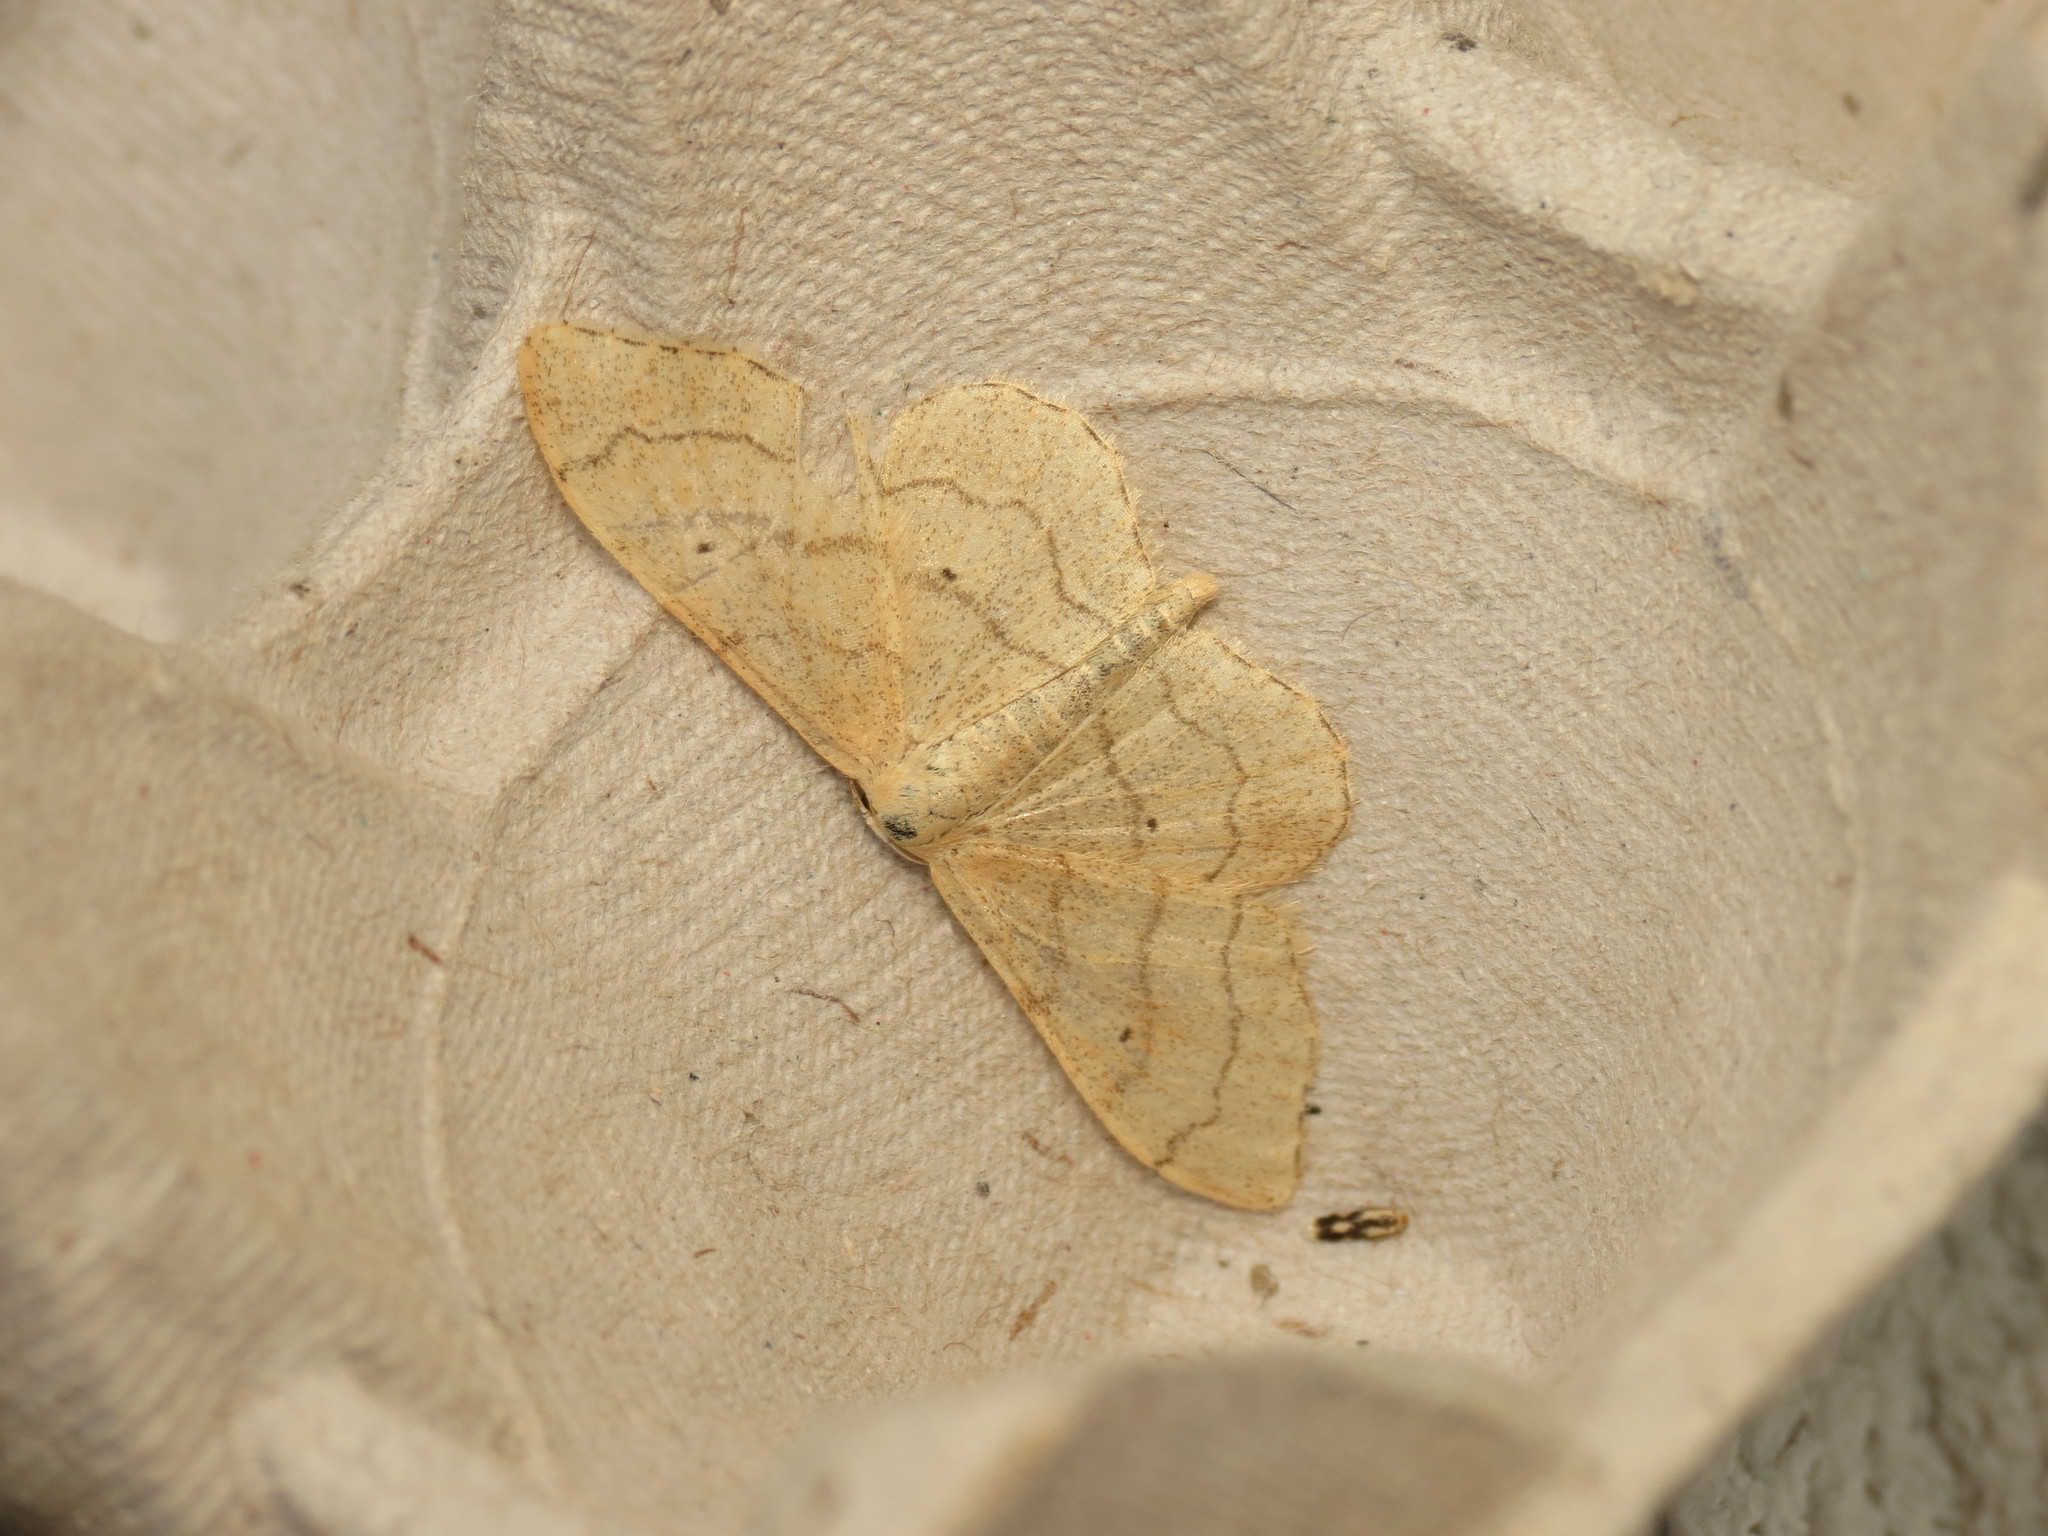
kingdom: Animalia
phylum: Arthropoda
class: Insecta
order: Lepidoptera
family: Geometridae
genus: Idaea
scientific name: Idaea aversata
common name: Riband wave
